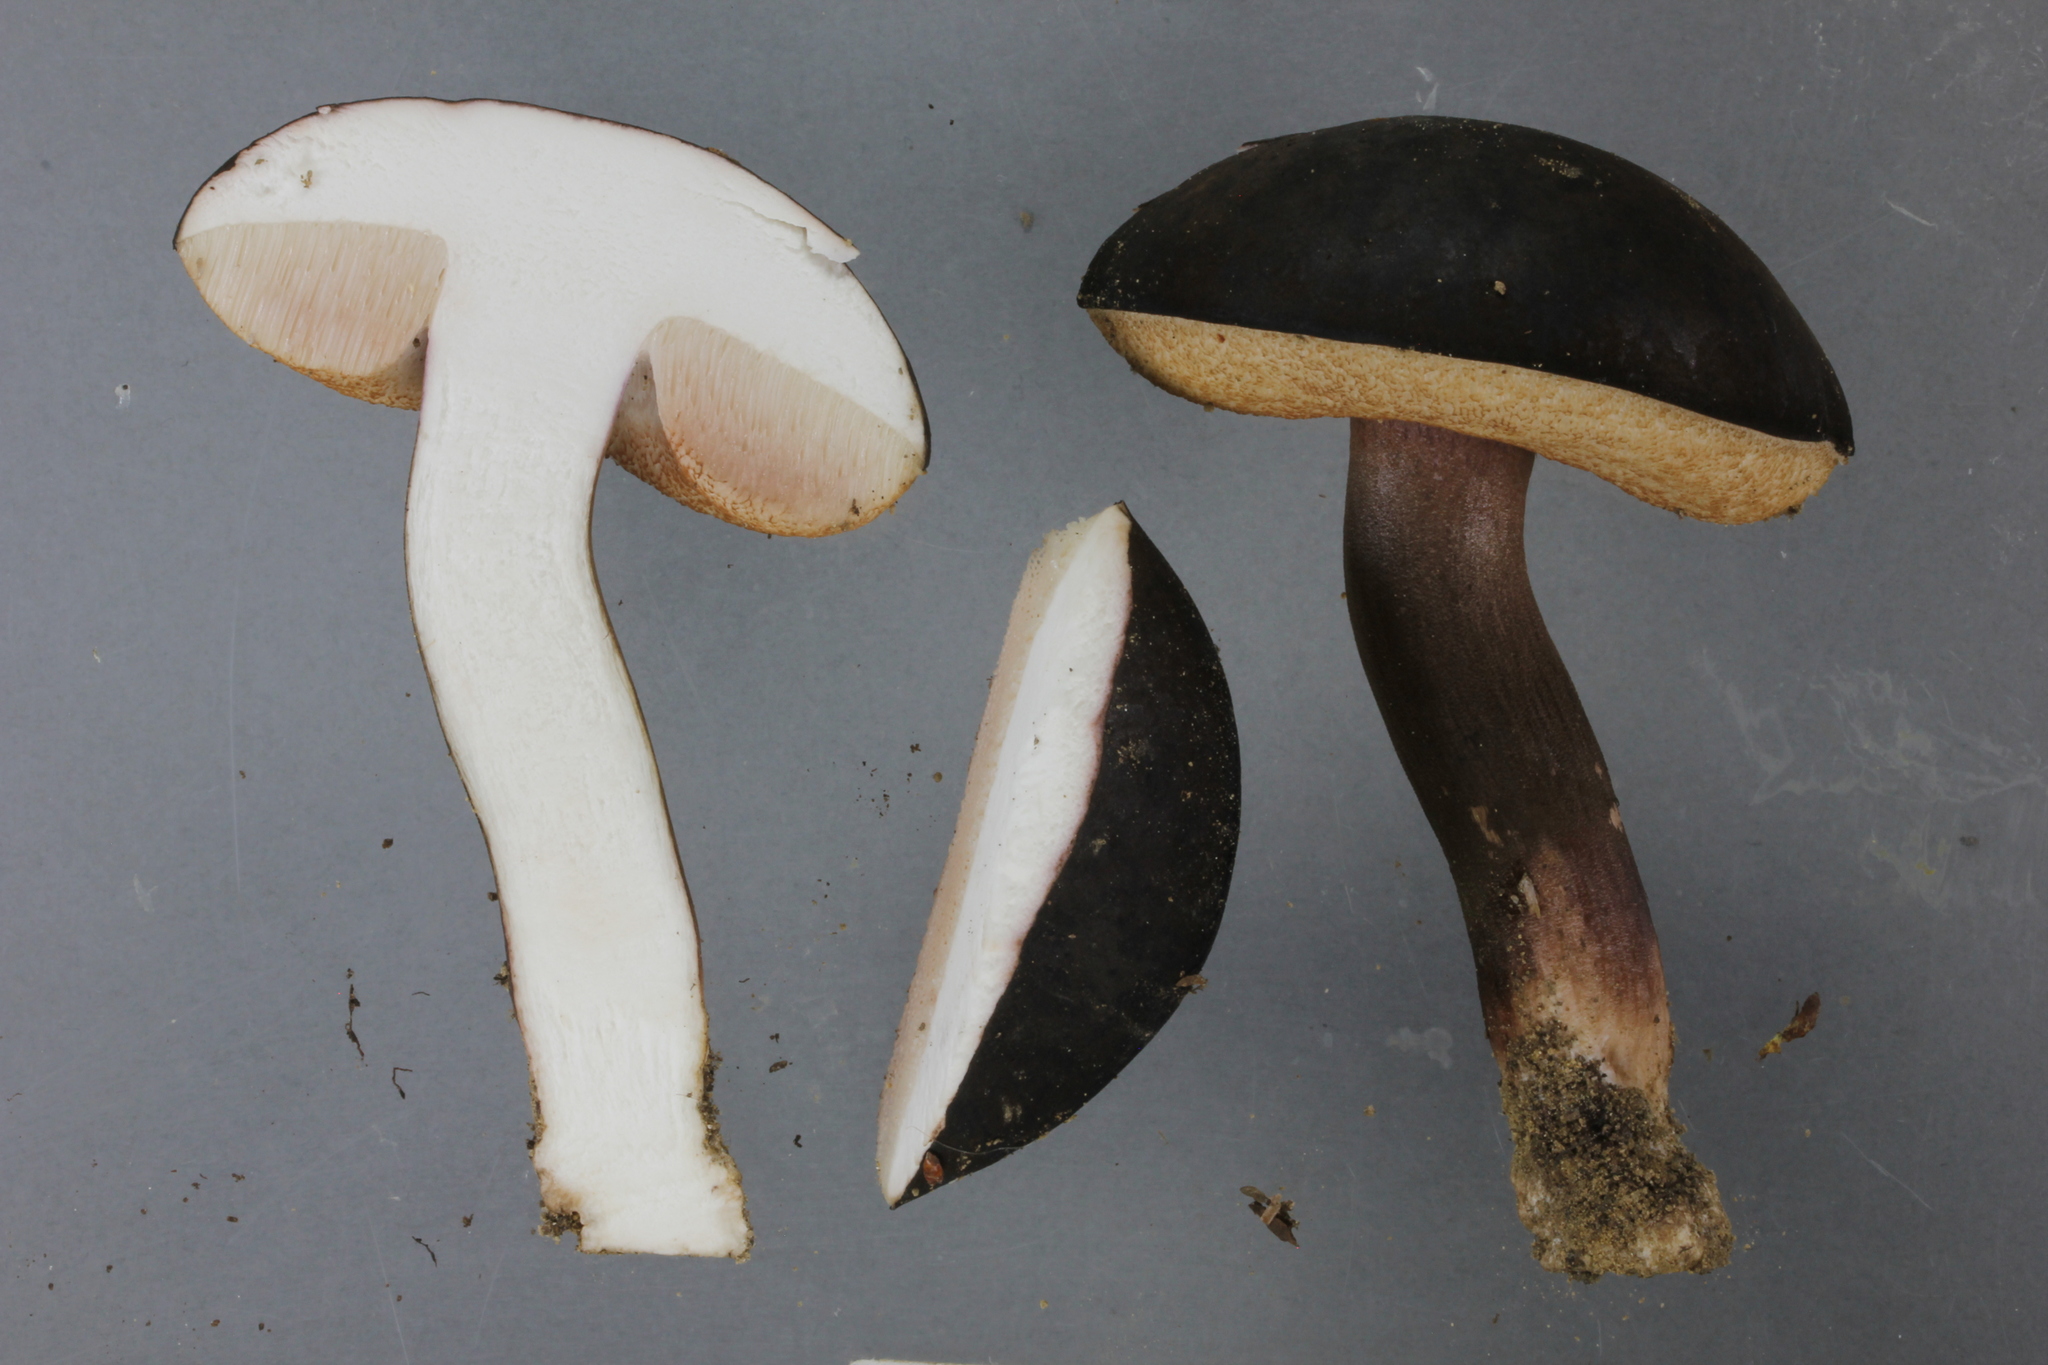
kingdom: Fungi
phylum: Basidiomycota
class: Agaricomycetes
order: Boletales
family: Boletaceae
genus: Porphyrellus
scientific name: Porphyrellus formosus
